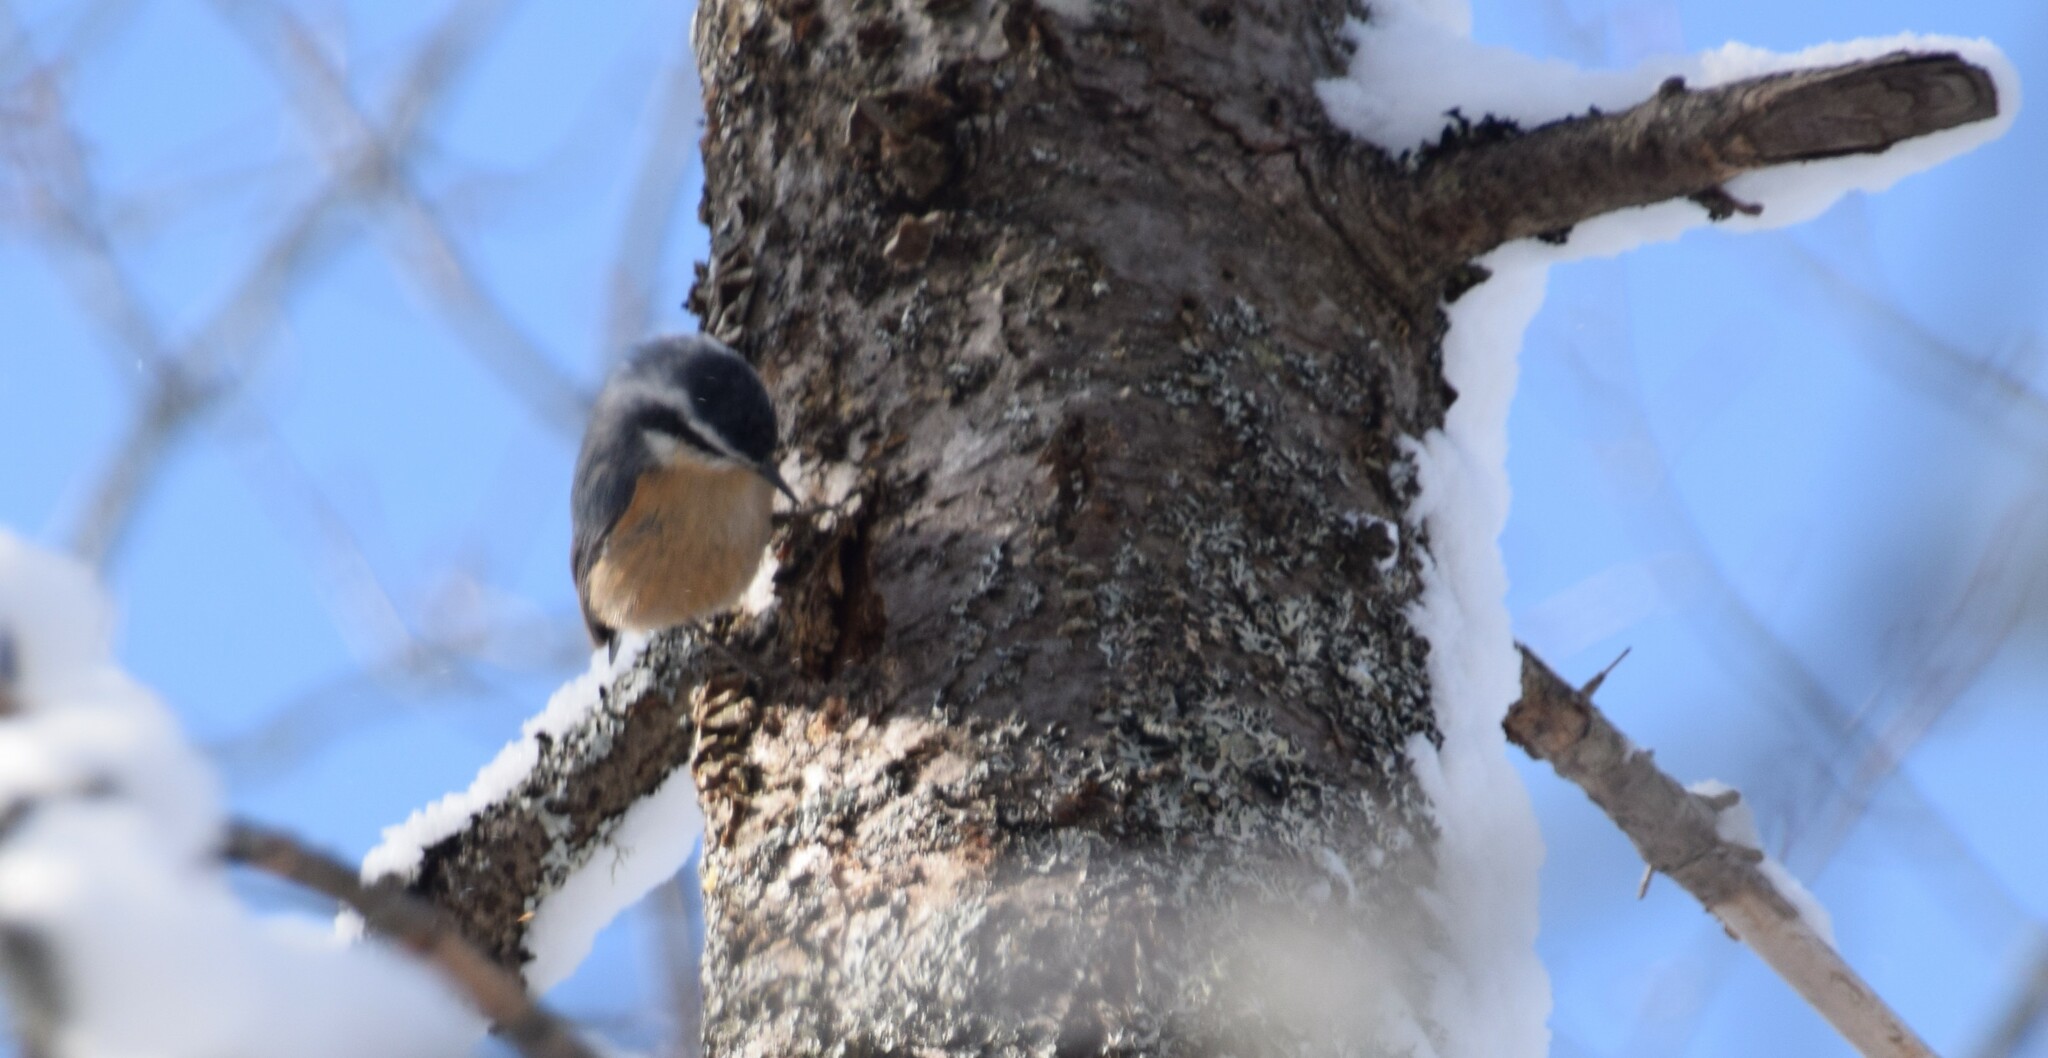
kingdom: Animalia
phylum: Chordata
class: Aves
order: Passeriformes
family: Sittidae
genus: Sitta
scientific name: Sitta canadensis
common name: Red-breasted nuthatch
